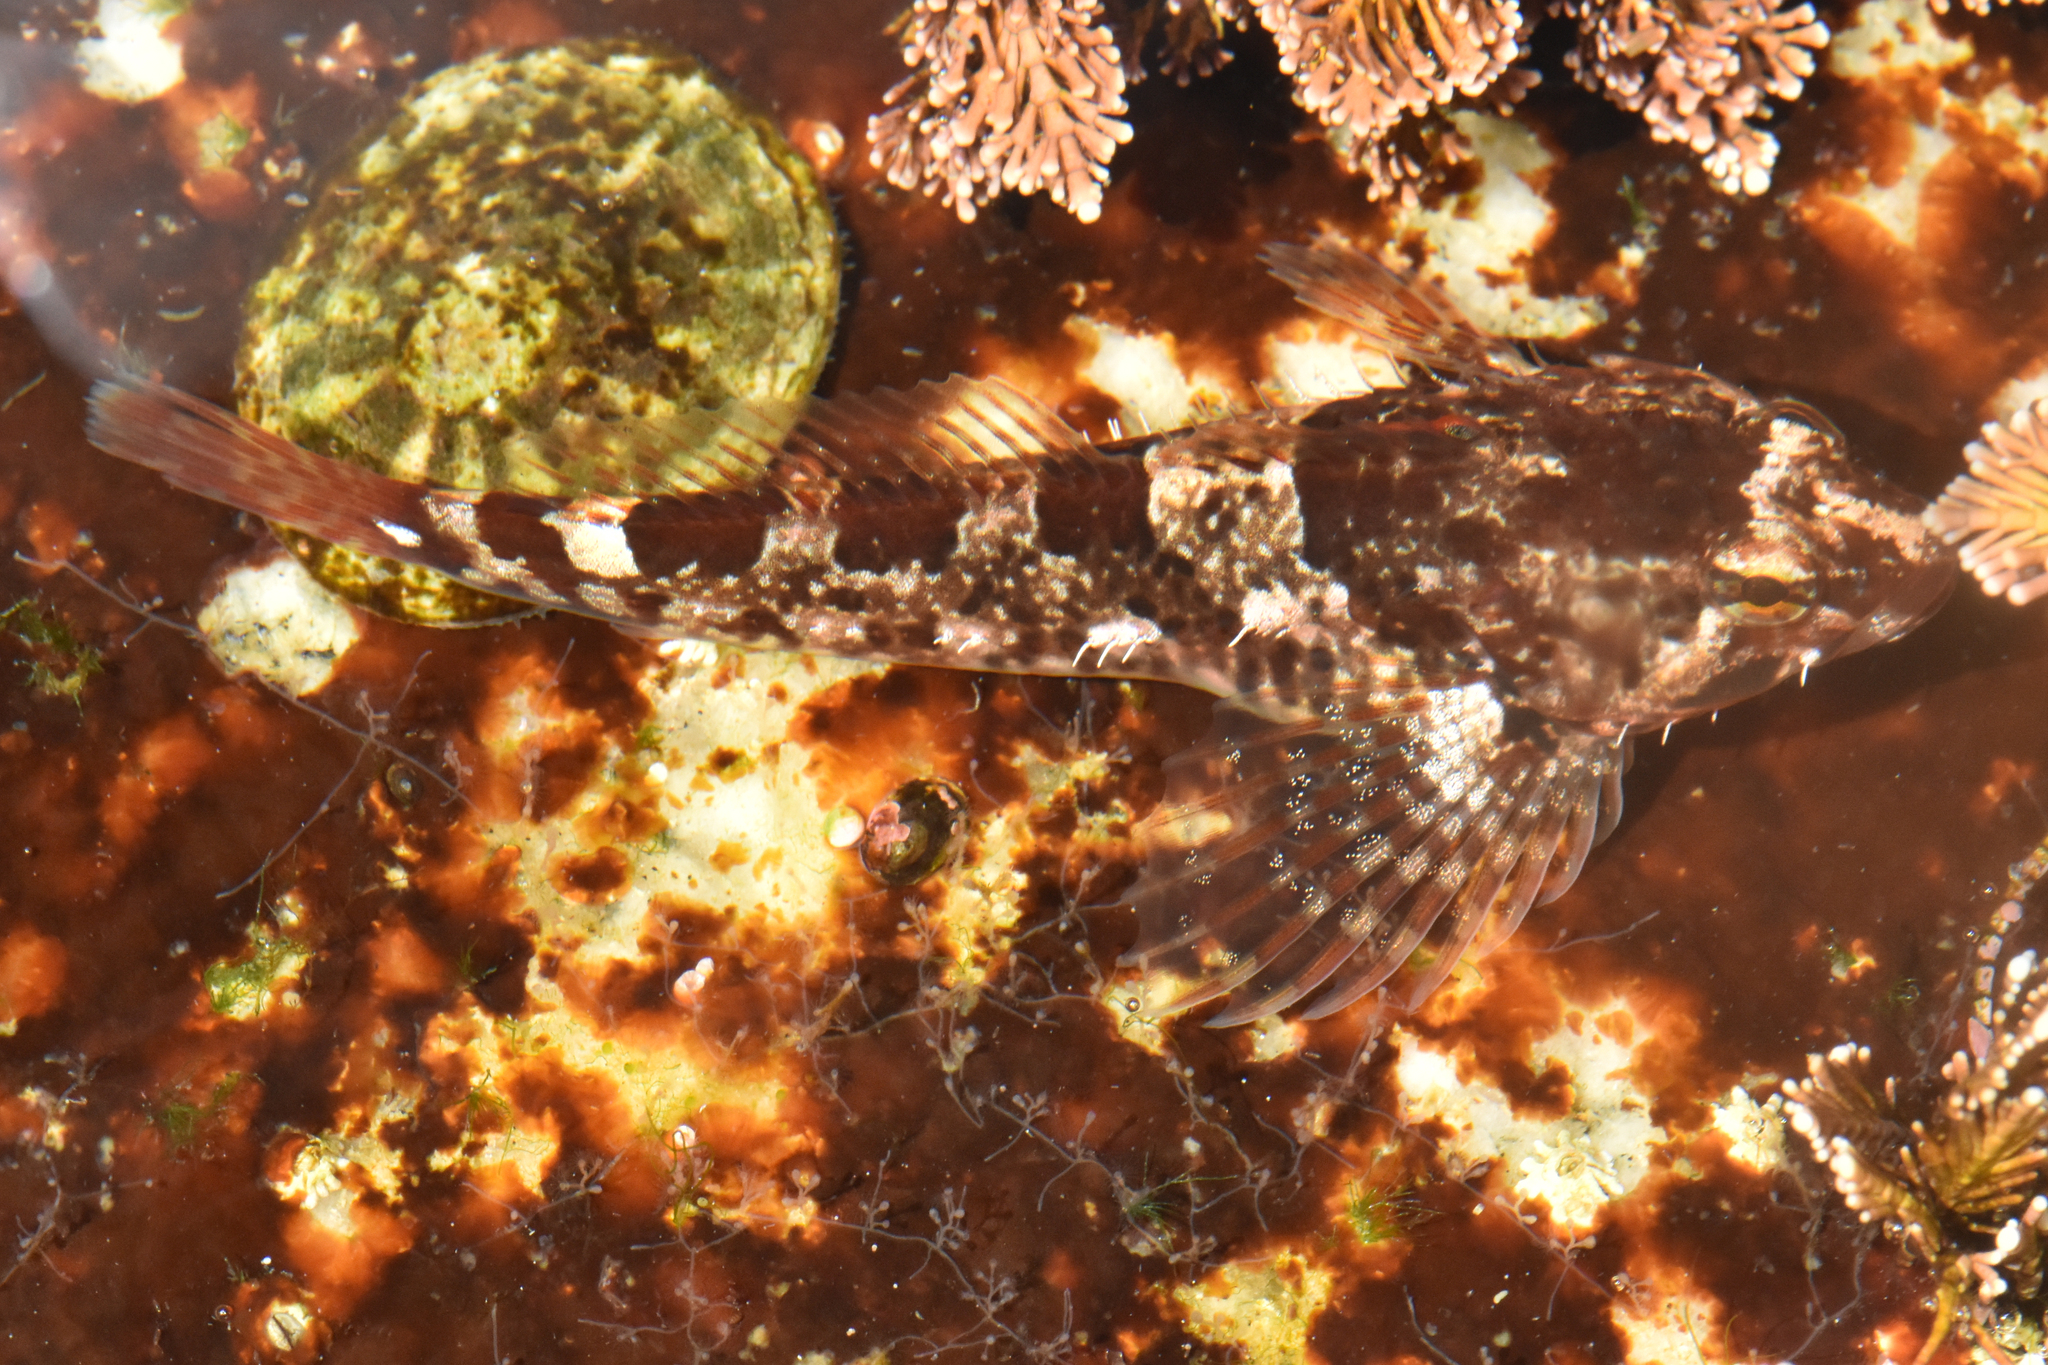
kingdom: Animalia
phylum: Chordata
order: Scorpaeniformes
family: Cottidae
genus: Oligocottus
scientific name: Oligocottus maculosus
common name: Tidepool sculpin
